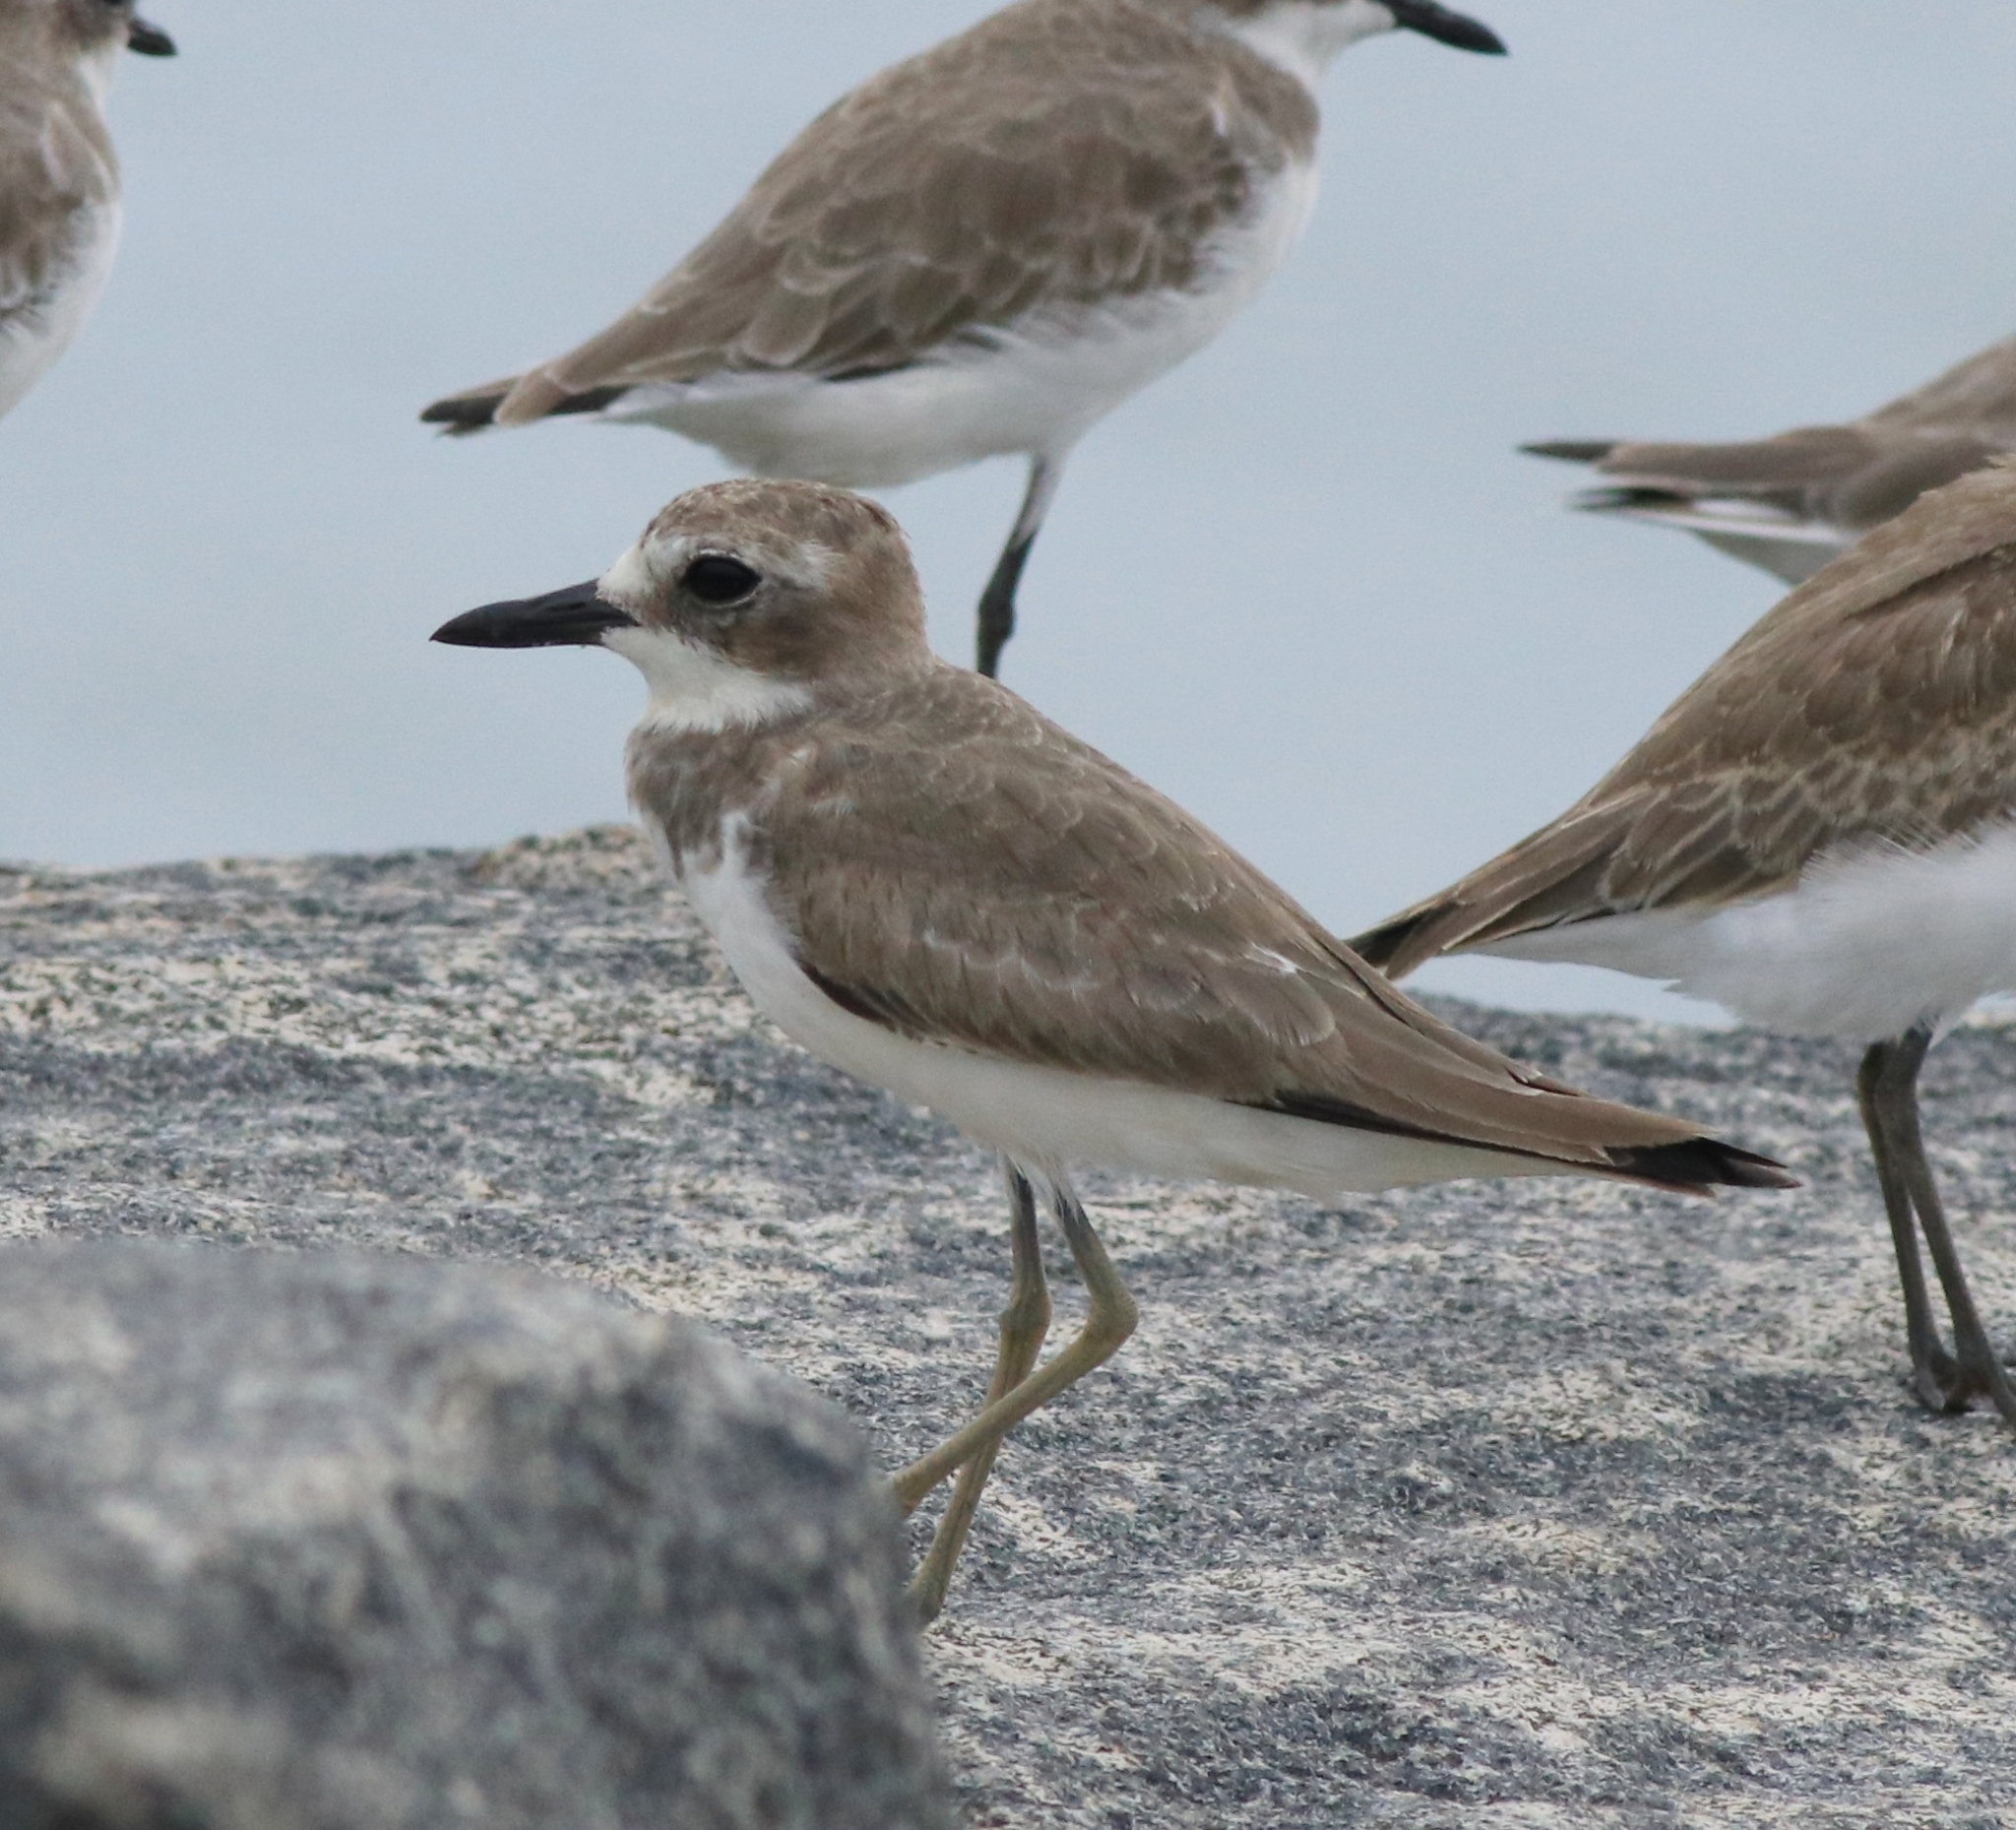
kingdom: Animalia
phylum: Chordata
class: Aves
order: Charadriiformes
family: Charadriidae
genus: Charadrius
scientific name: Charadrius leschenaultii
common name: Greater sand plover
